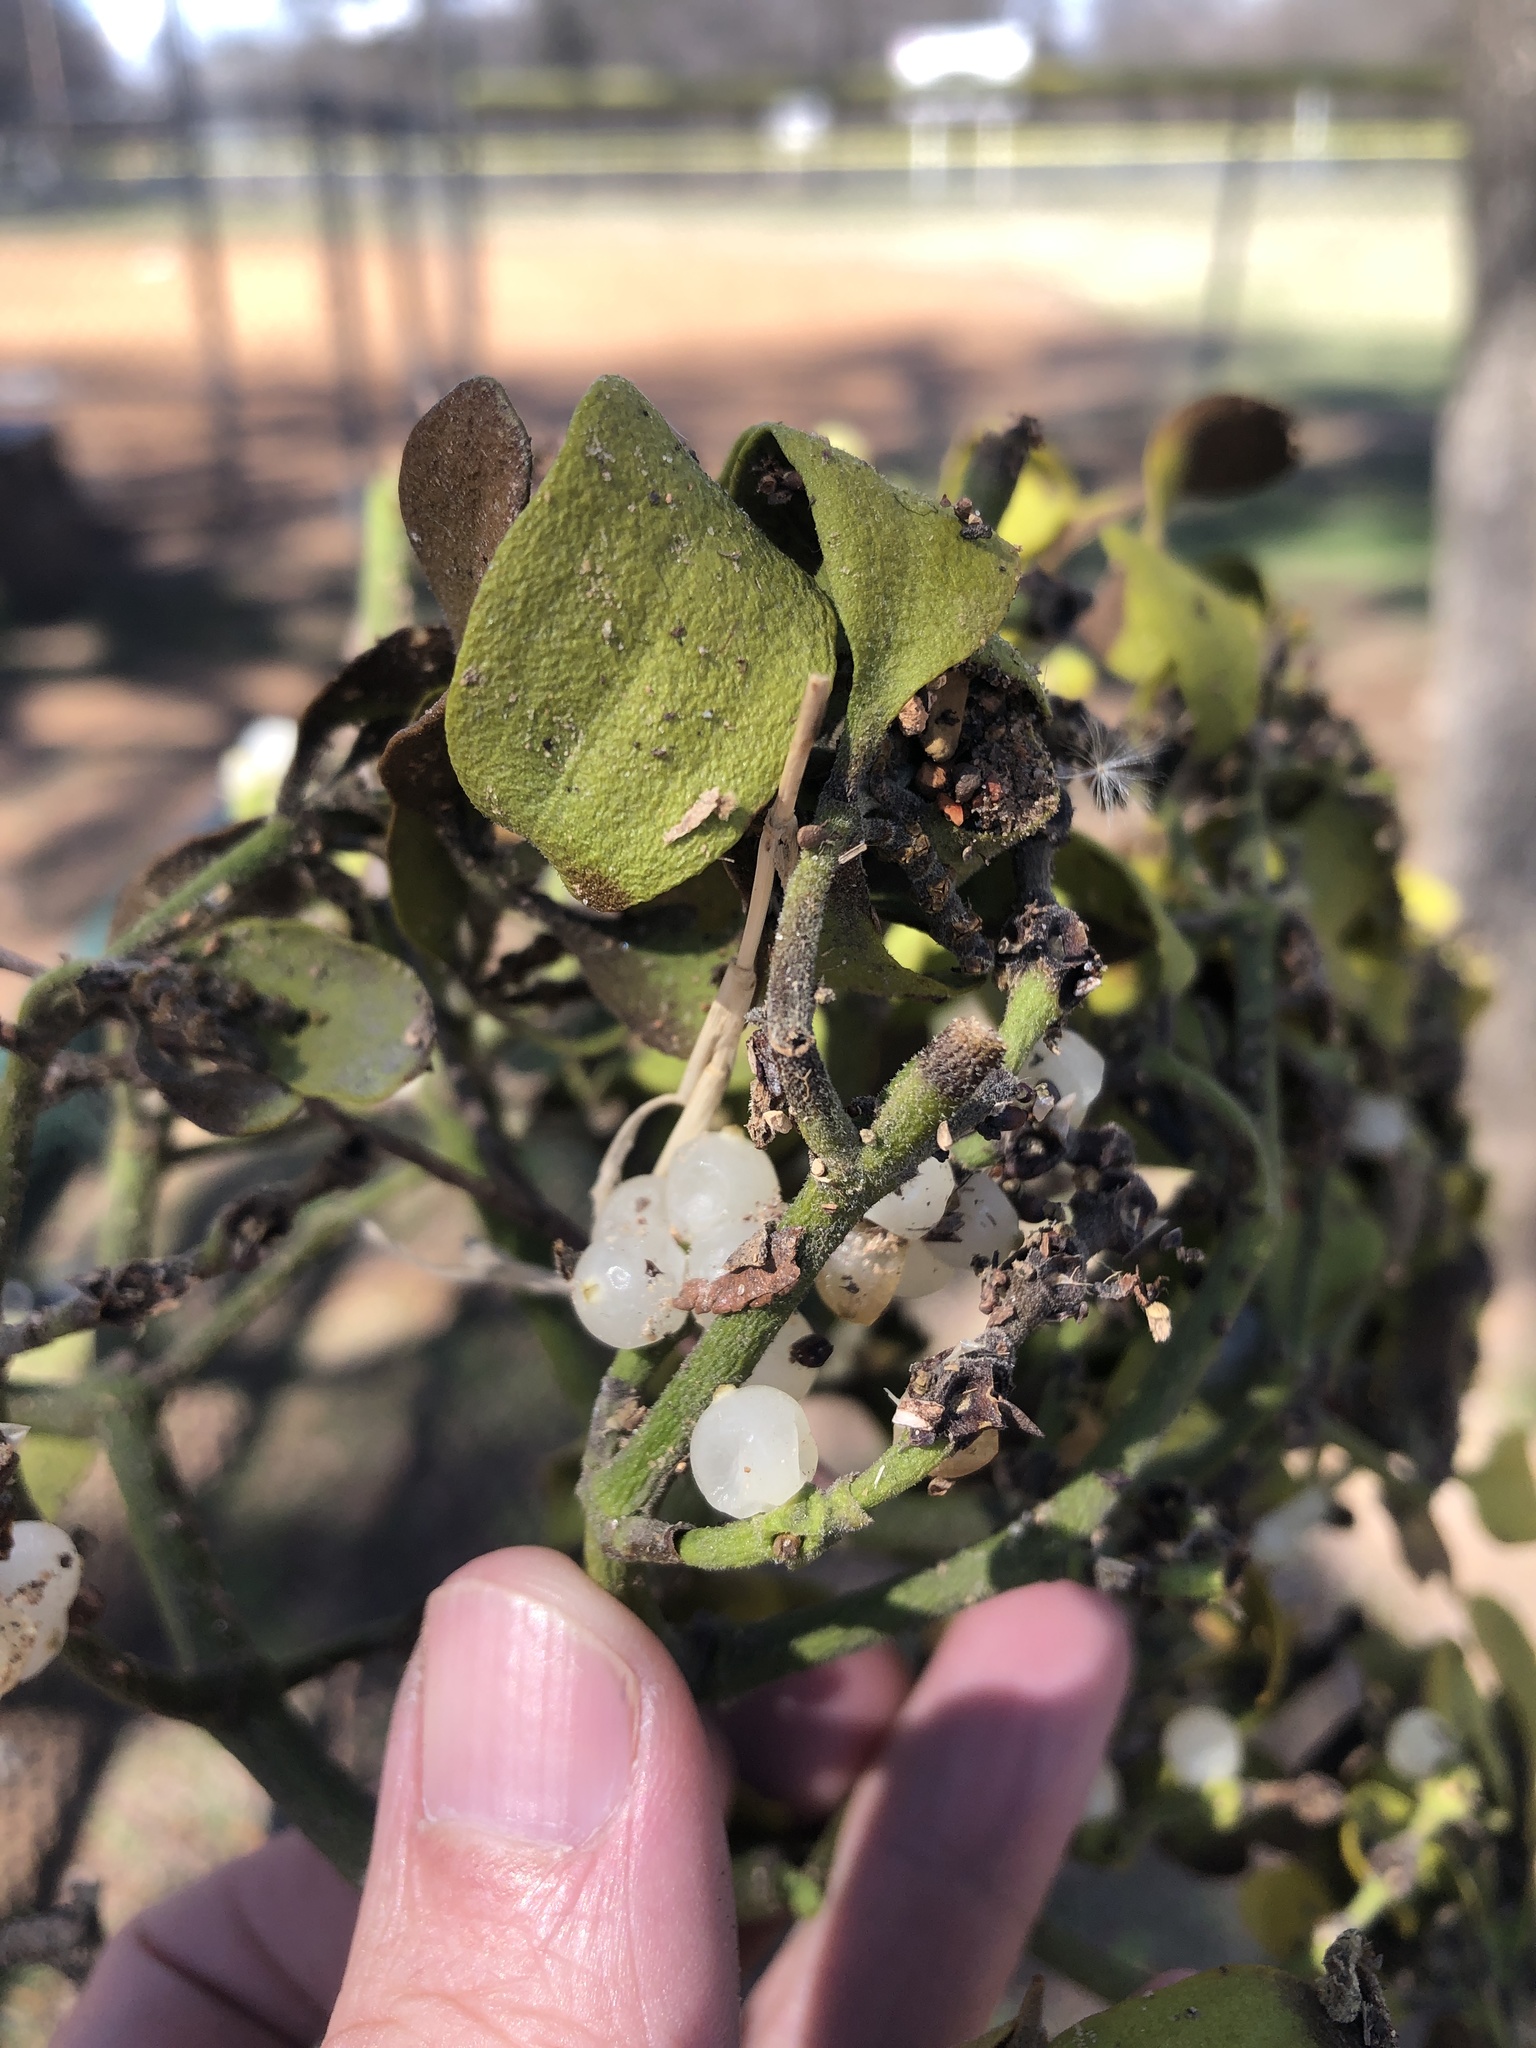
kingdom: Plantae
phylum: Tracheophyta
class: Magnoliopsida
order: Santalales
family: Viscaceae
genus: Phoradendron
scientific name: Phoradendron leucarpum
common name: Pacific mistletoe
